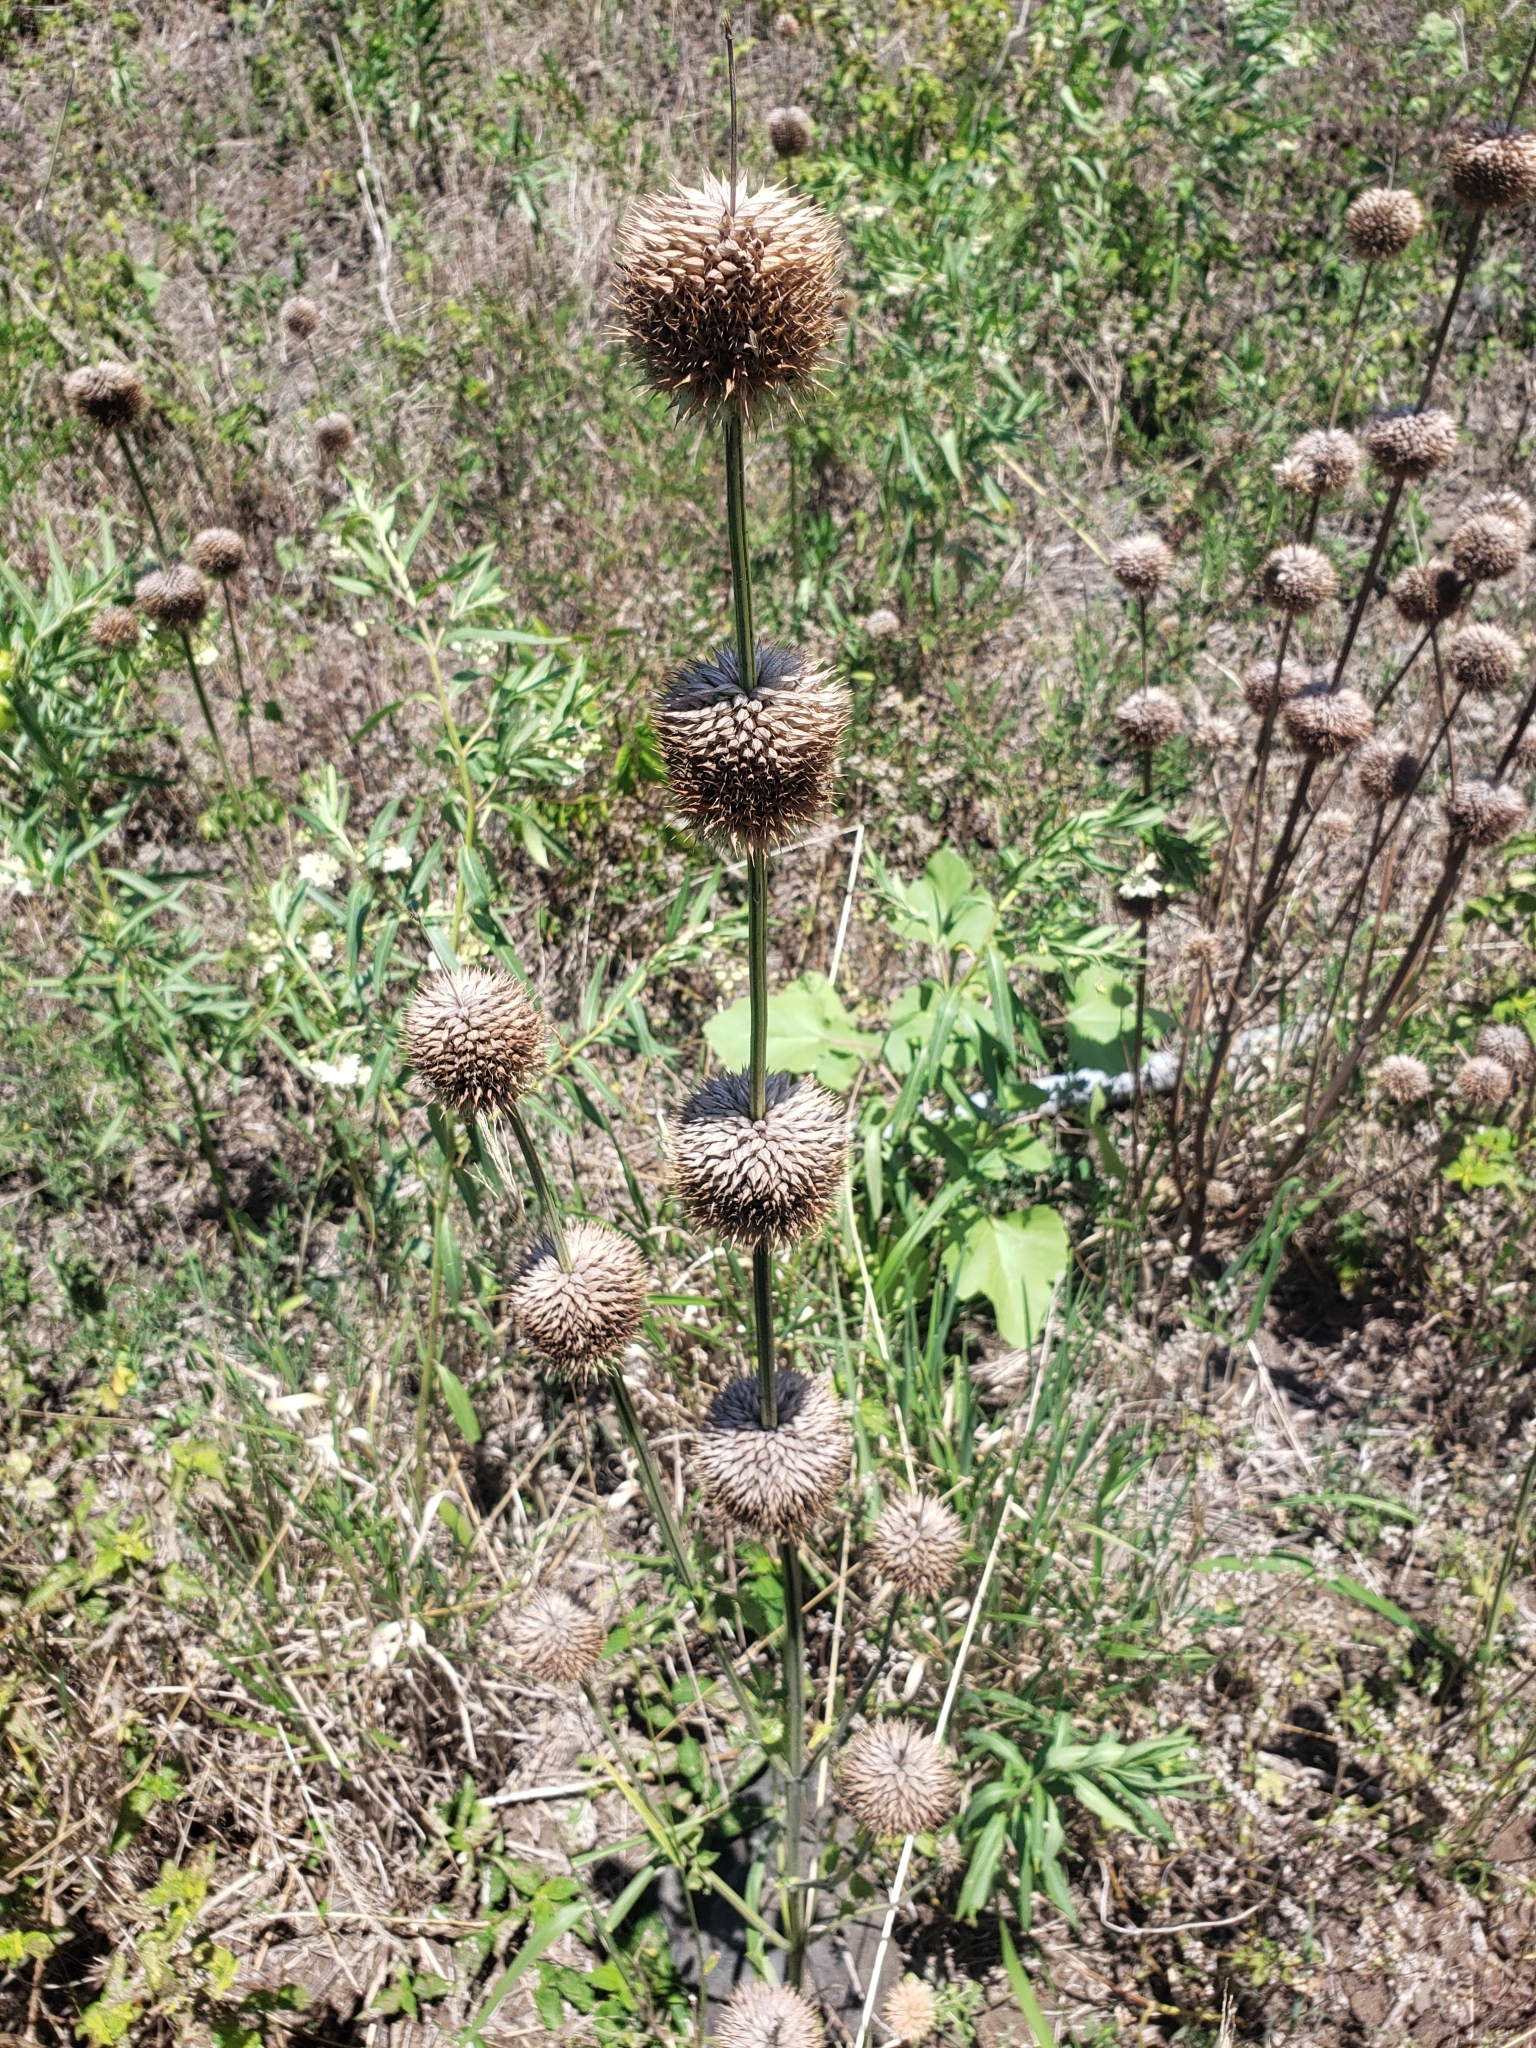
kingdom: Plantae
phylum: Tracheophyta
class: Magnoliopsida
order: Lamiales
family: Lamiaceae
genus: Leonotis
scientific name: Leonotis nepetifolia
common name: Christmas candlestick
